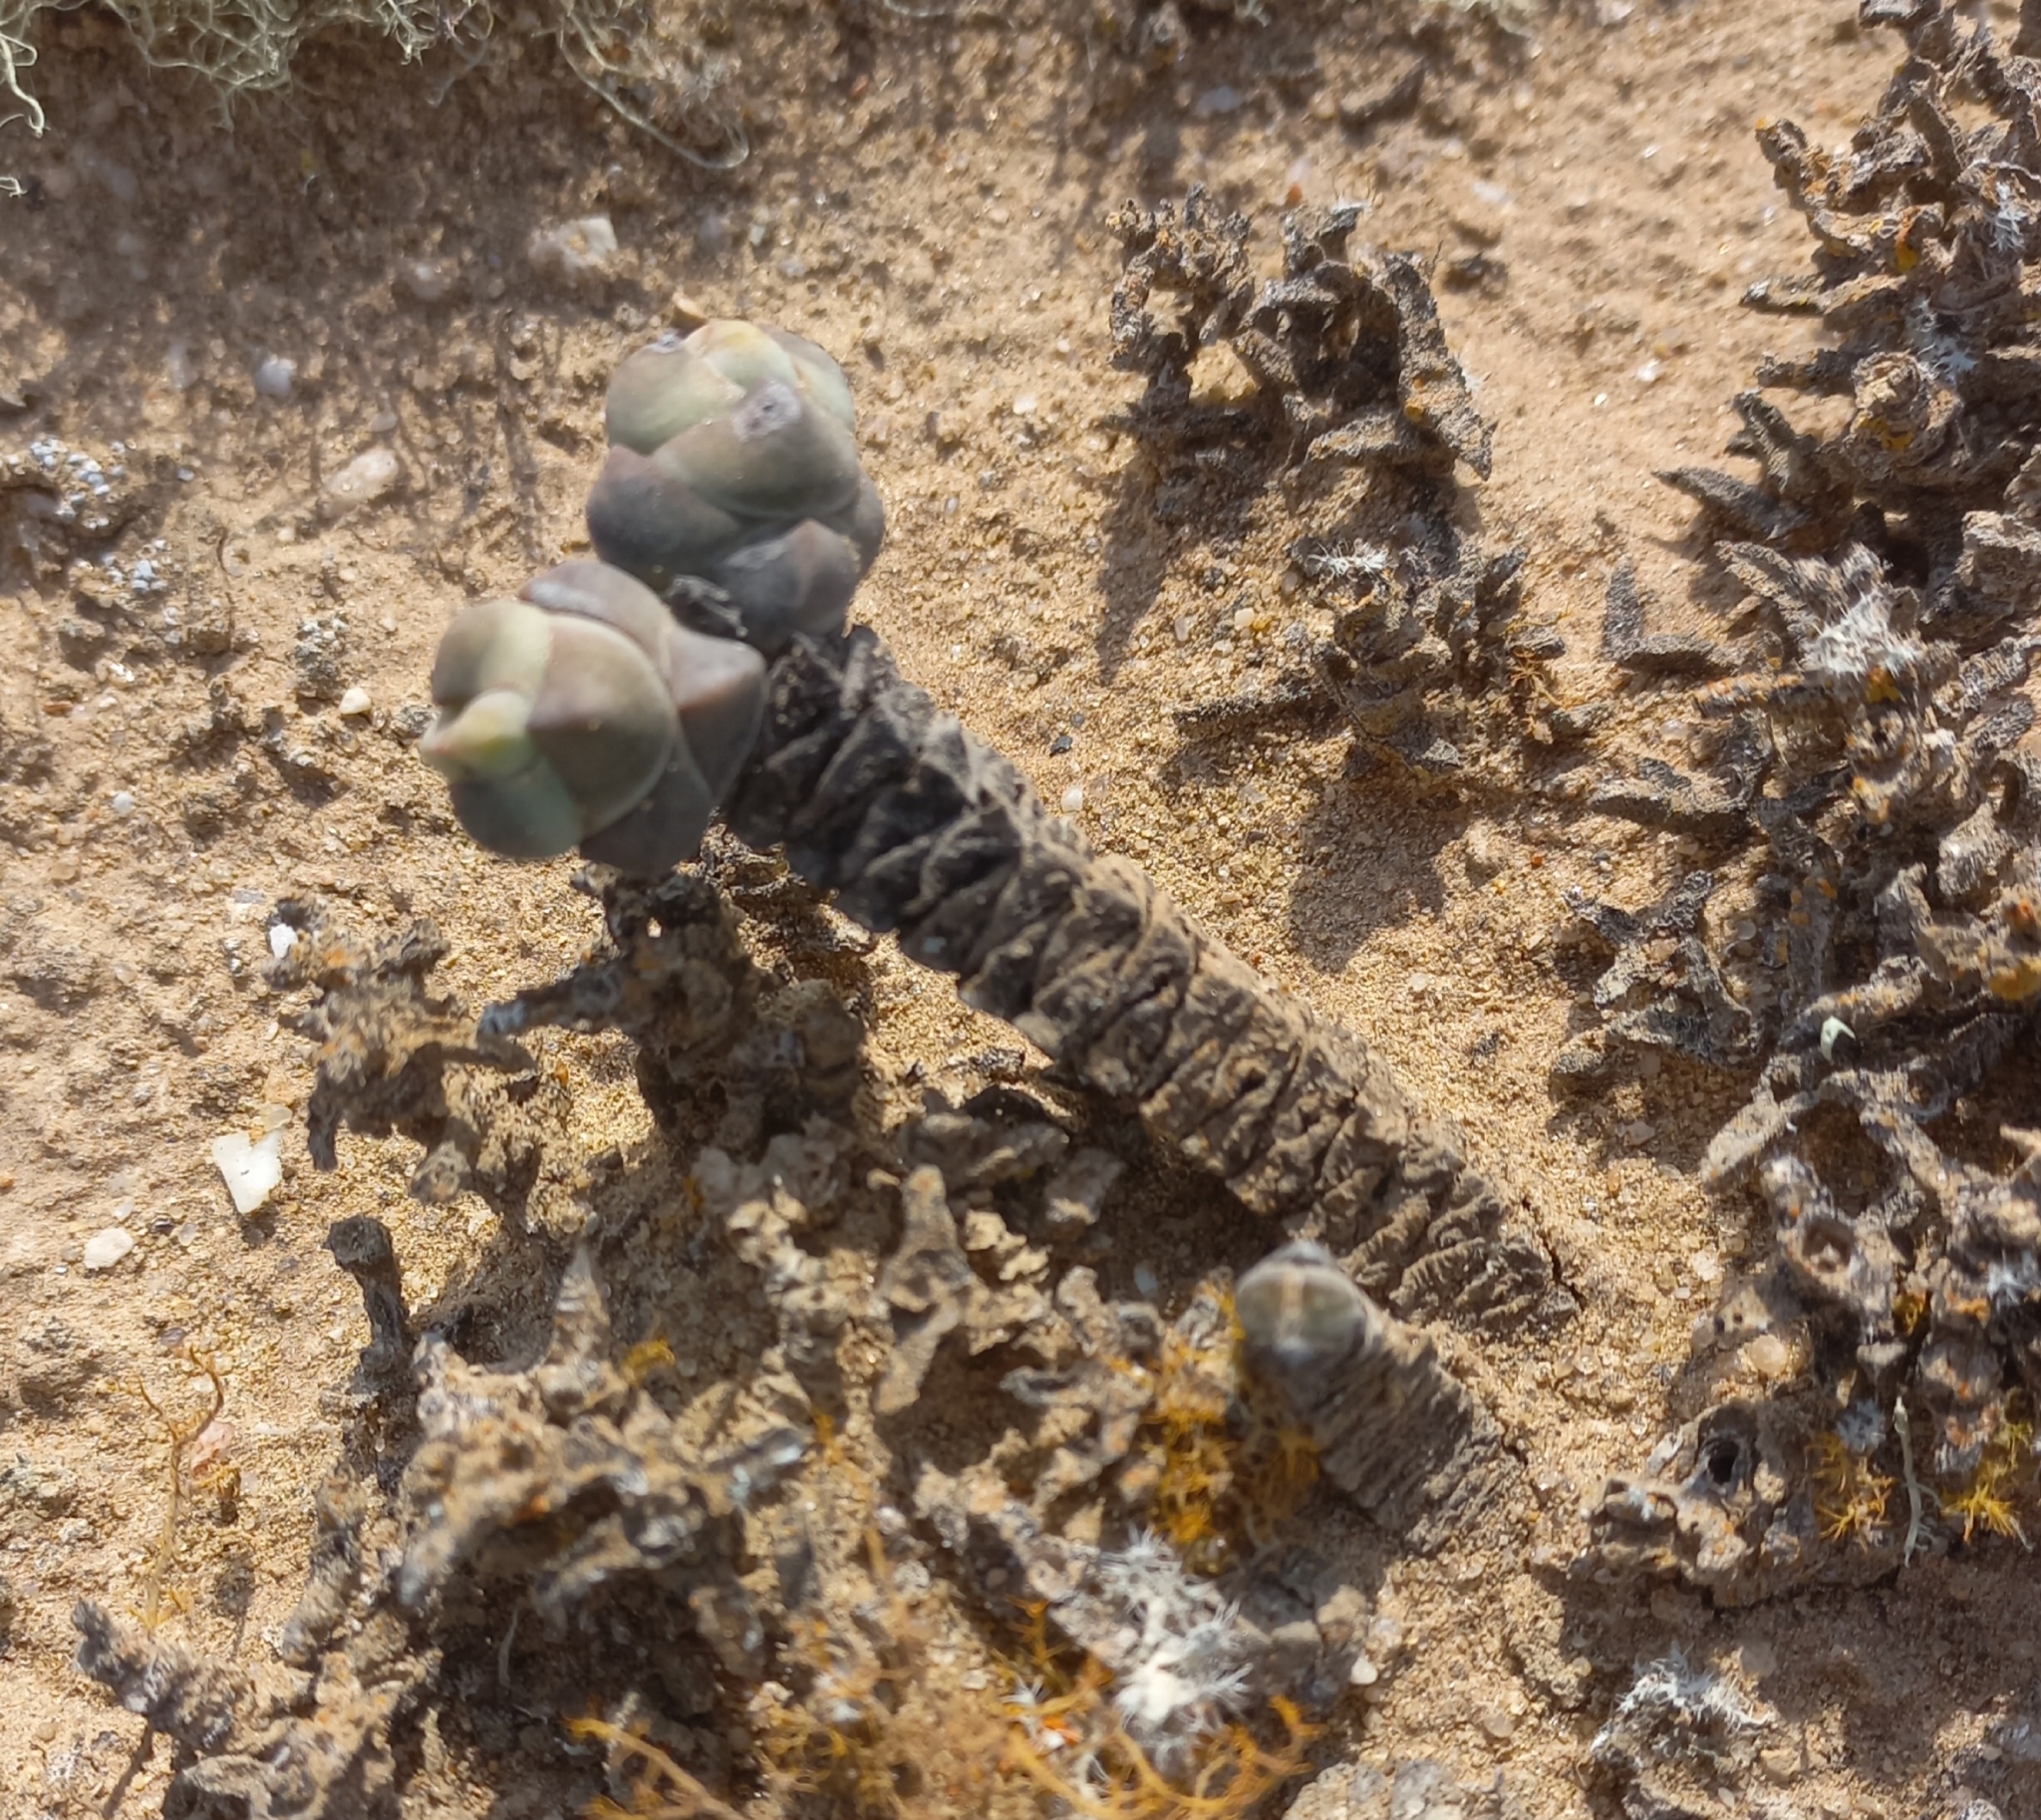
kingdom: Plantae
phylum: Tracheophyta
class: Magnoliopsida
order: Saxifragales
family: Crassulaceae
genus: Crassula
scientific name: Crassula plegmatoides
